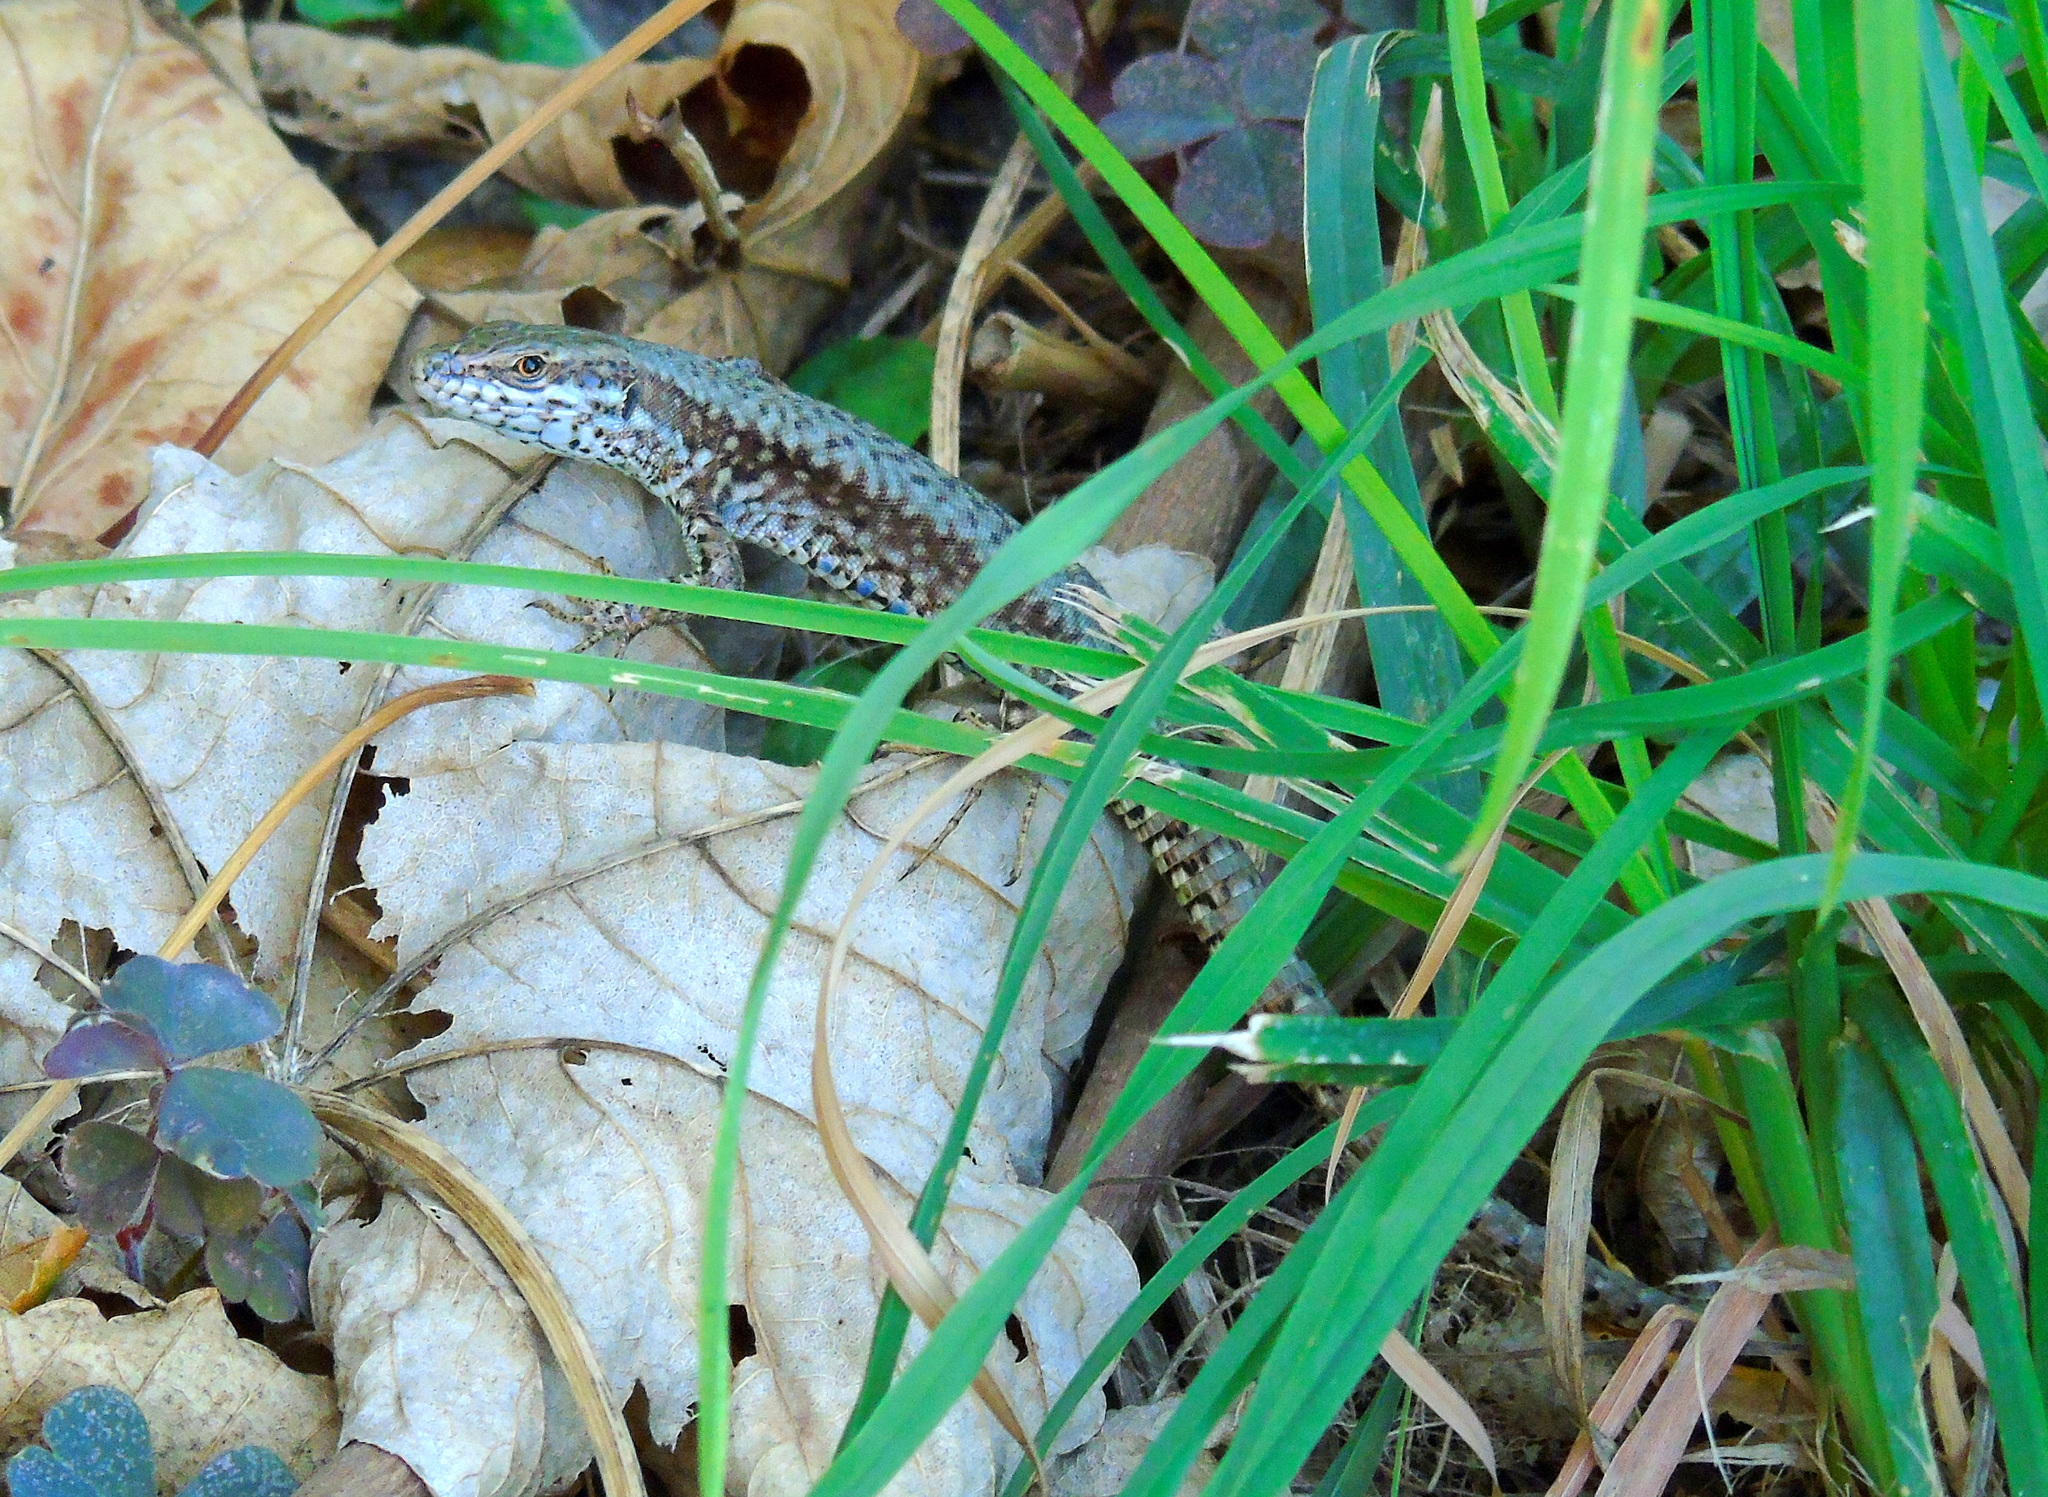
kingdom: Animalia
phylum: Chordata
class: Squamata
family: Lacertidae
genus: Podarcis
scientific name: Podarcis muralis
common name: Common wall lizard
